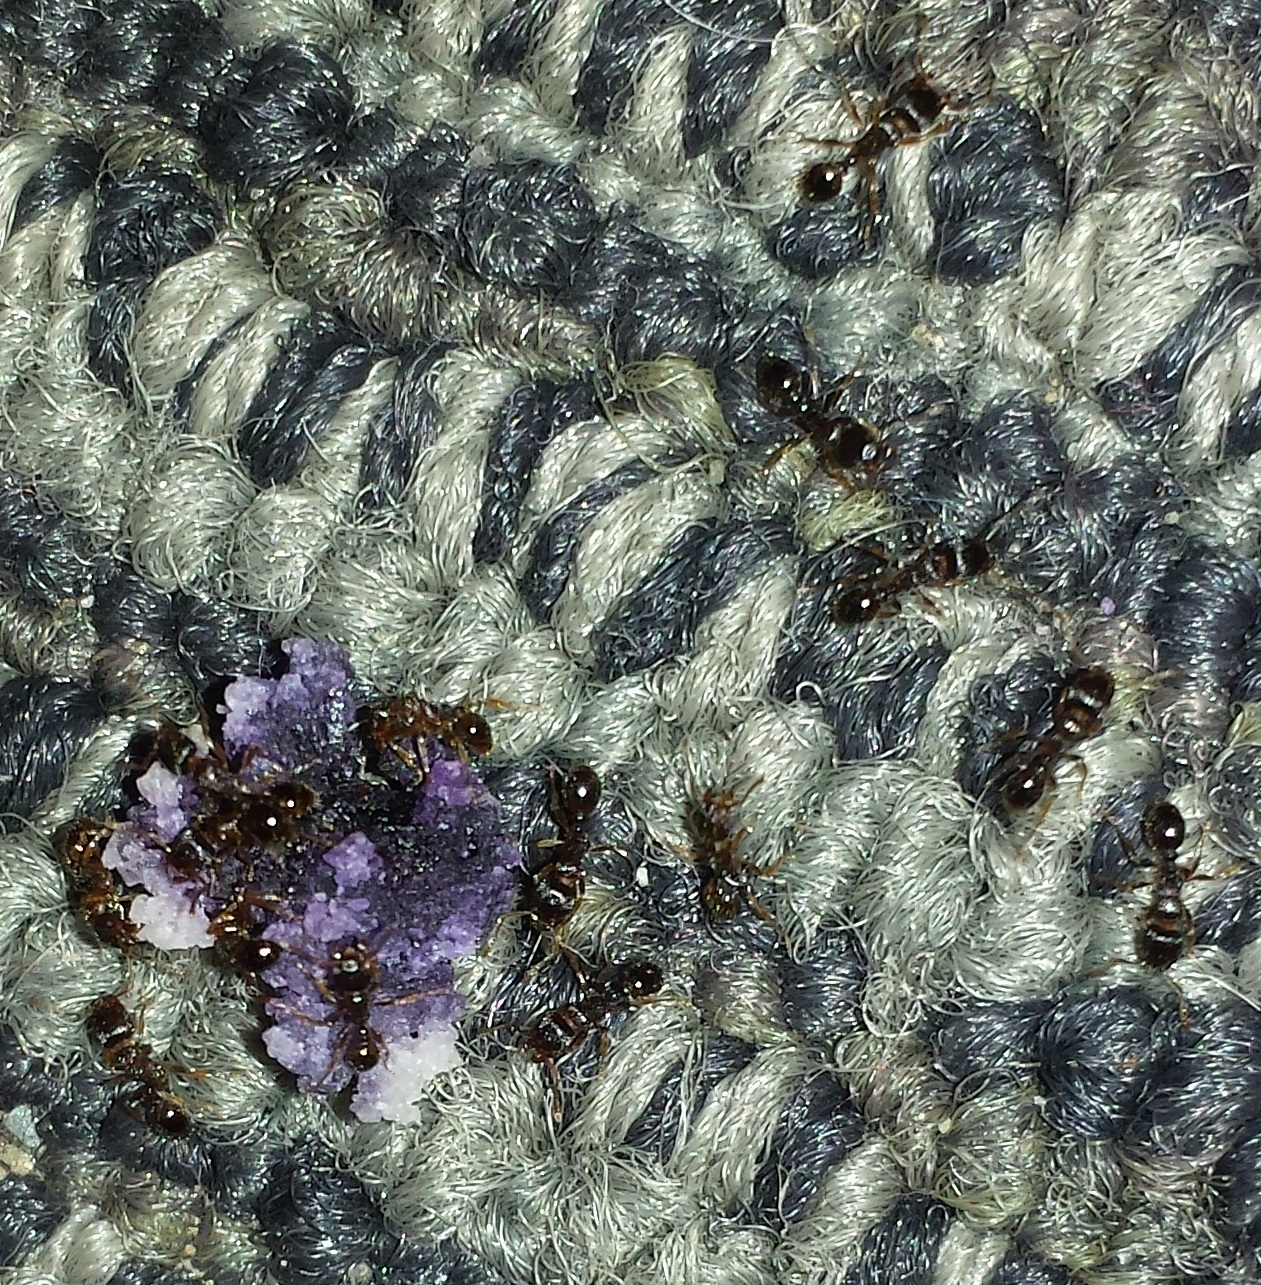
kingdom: Animalia
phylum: Arthropoda
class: Insecta
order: Hymenoptera
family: Formicidae
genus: Tetramorium
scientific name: Tetramorium immigrans
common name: Pavement ant
